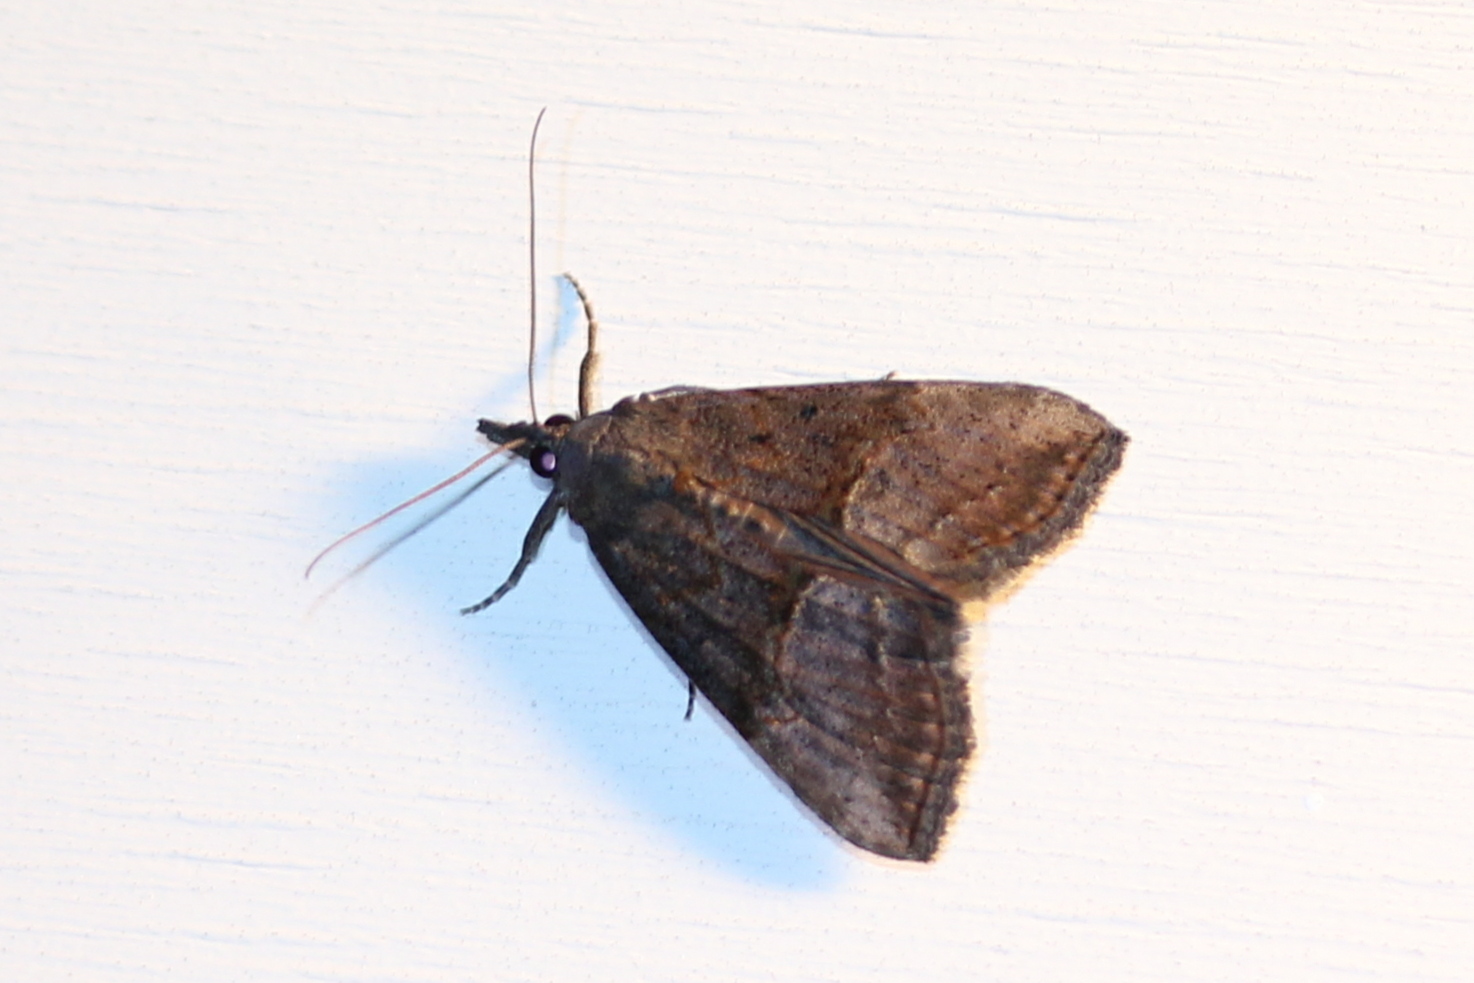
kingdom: Animalia
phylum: Arthropoda
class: Insecta
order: Lepidoptera
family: Erebidae
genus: Hypena
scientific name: Hypena scabra
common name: Green cloverworm
